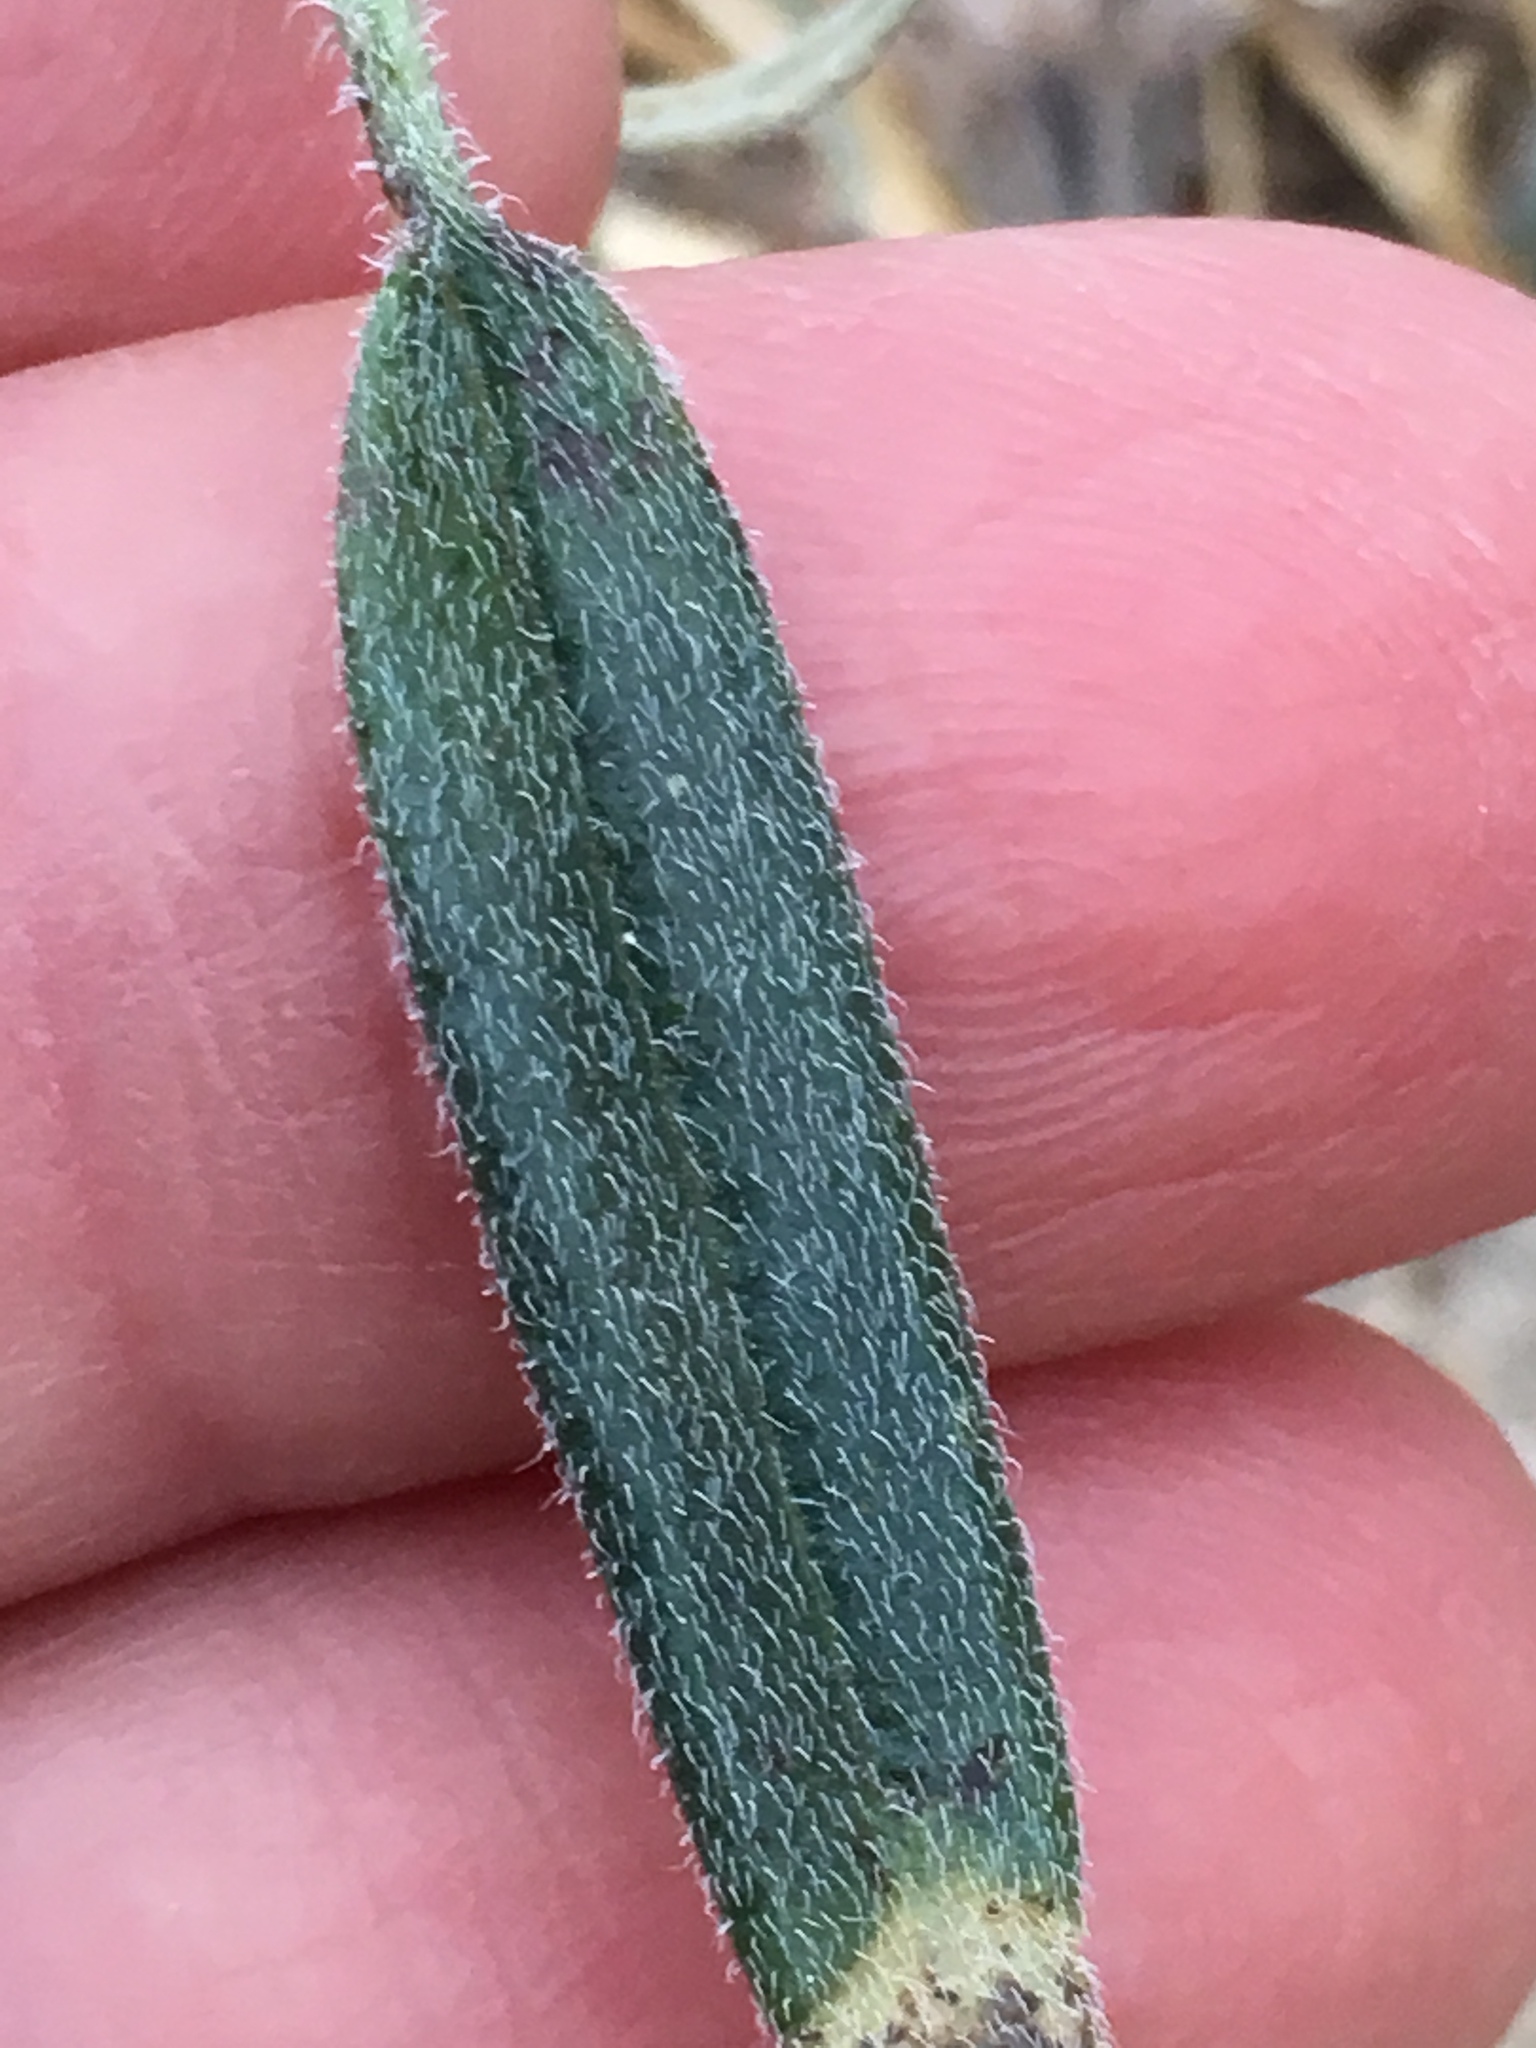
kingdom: Plantae
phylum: Tracheophyta
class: Magnoliopsida
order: Asterales
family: Asteraceae
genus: Palafoxia
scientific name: Palafoxia arida
